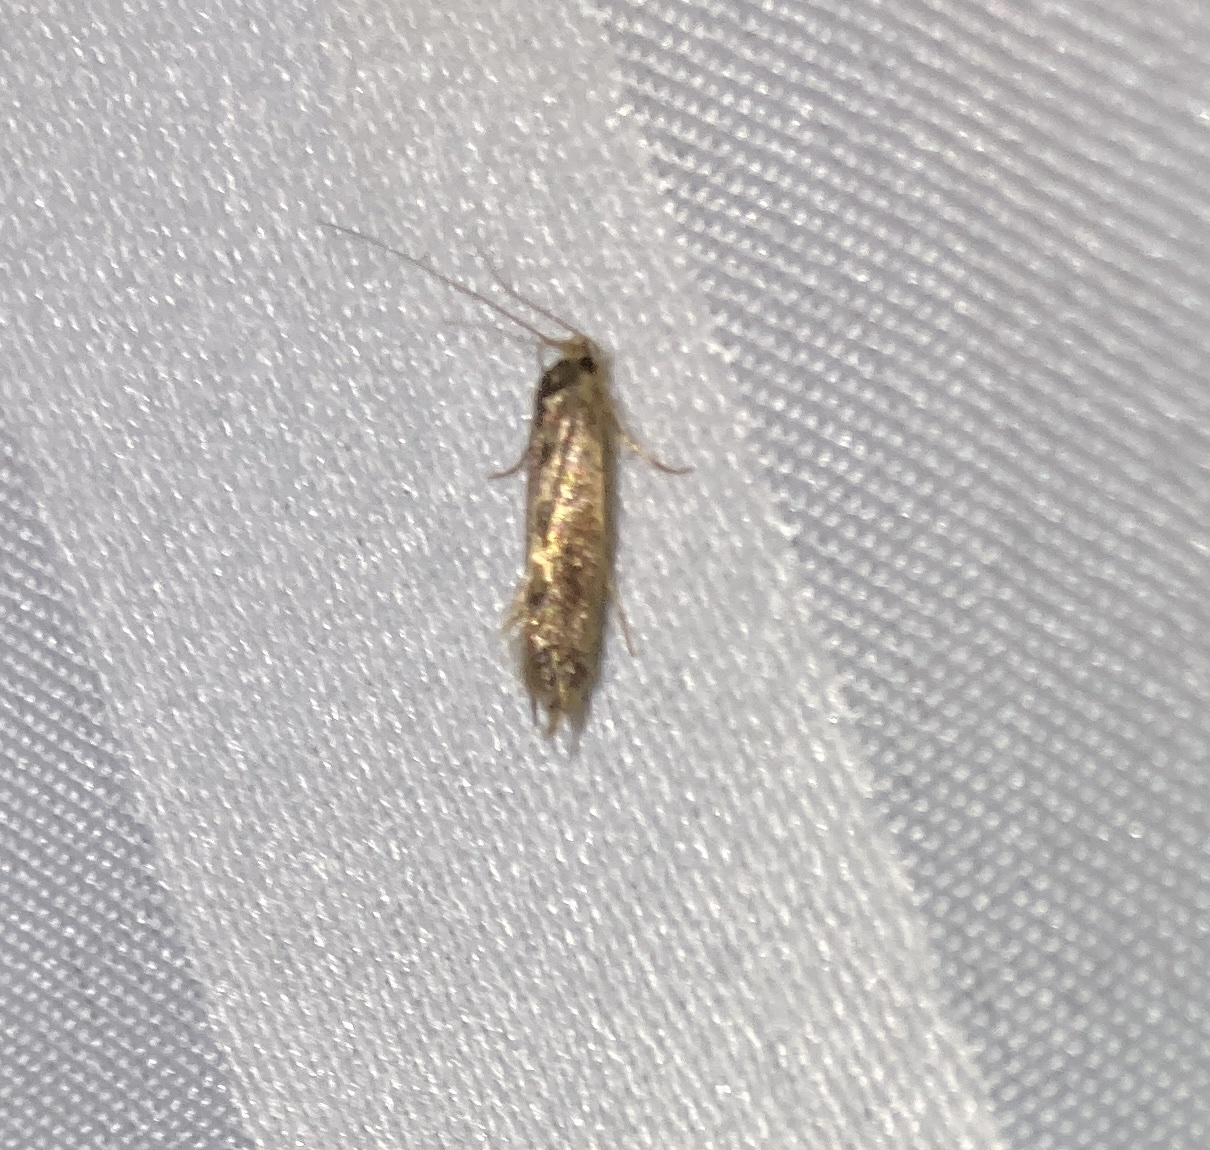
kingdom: Animalia
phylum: Arthropoda
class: Insecta
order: Lepidoptera
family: Tineidae
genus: Opogona
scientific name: Opogona omoscopa
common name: Moth
